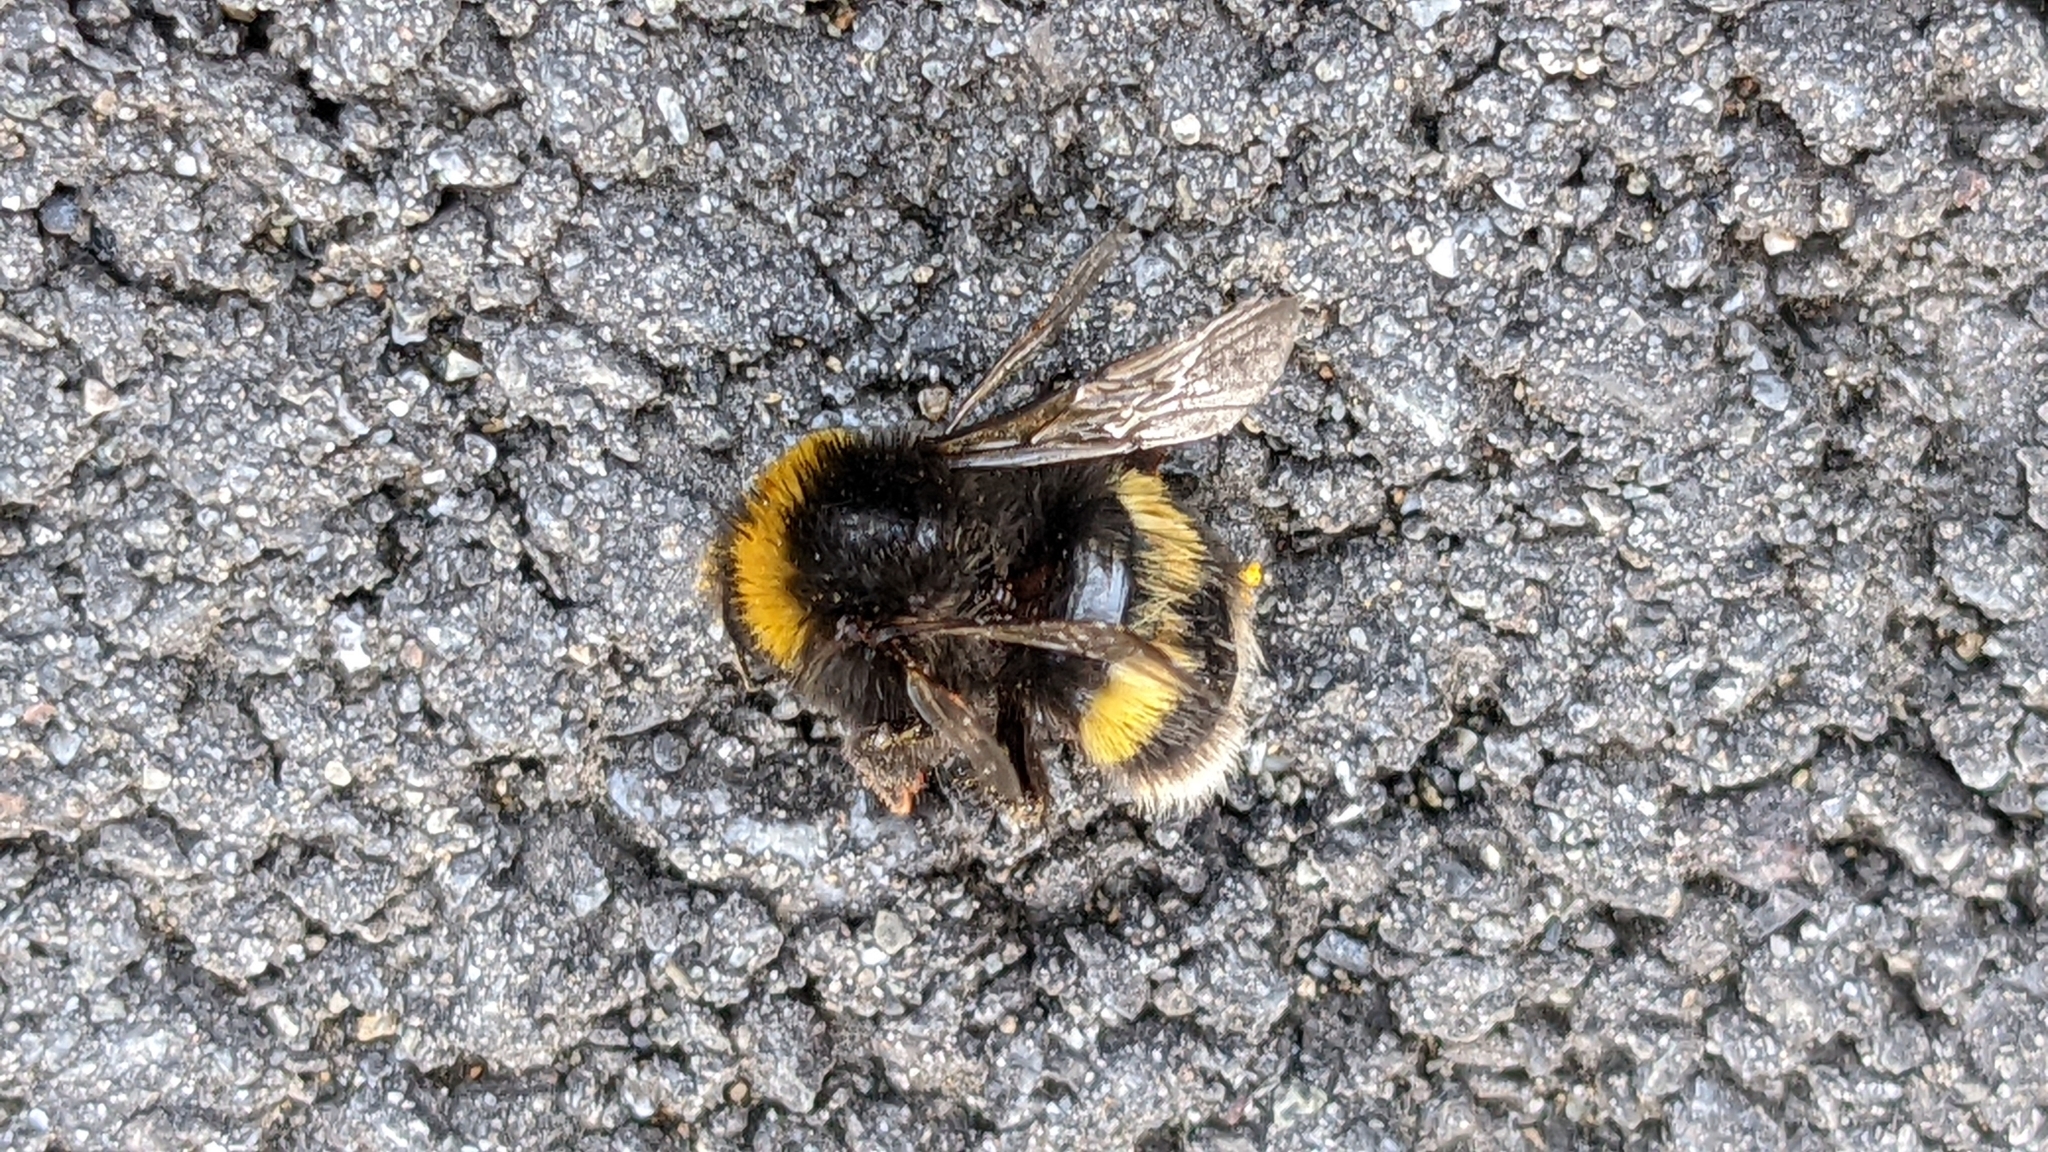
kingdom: Animalia
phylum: Arthropoda
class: Insecta
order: Hymenoptera
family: Apidae
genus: Bombus
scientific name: Bombus terrestris
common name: Buff-tailed bumblebee
